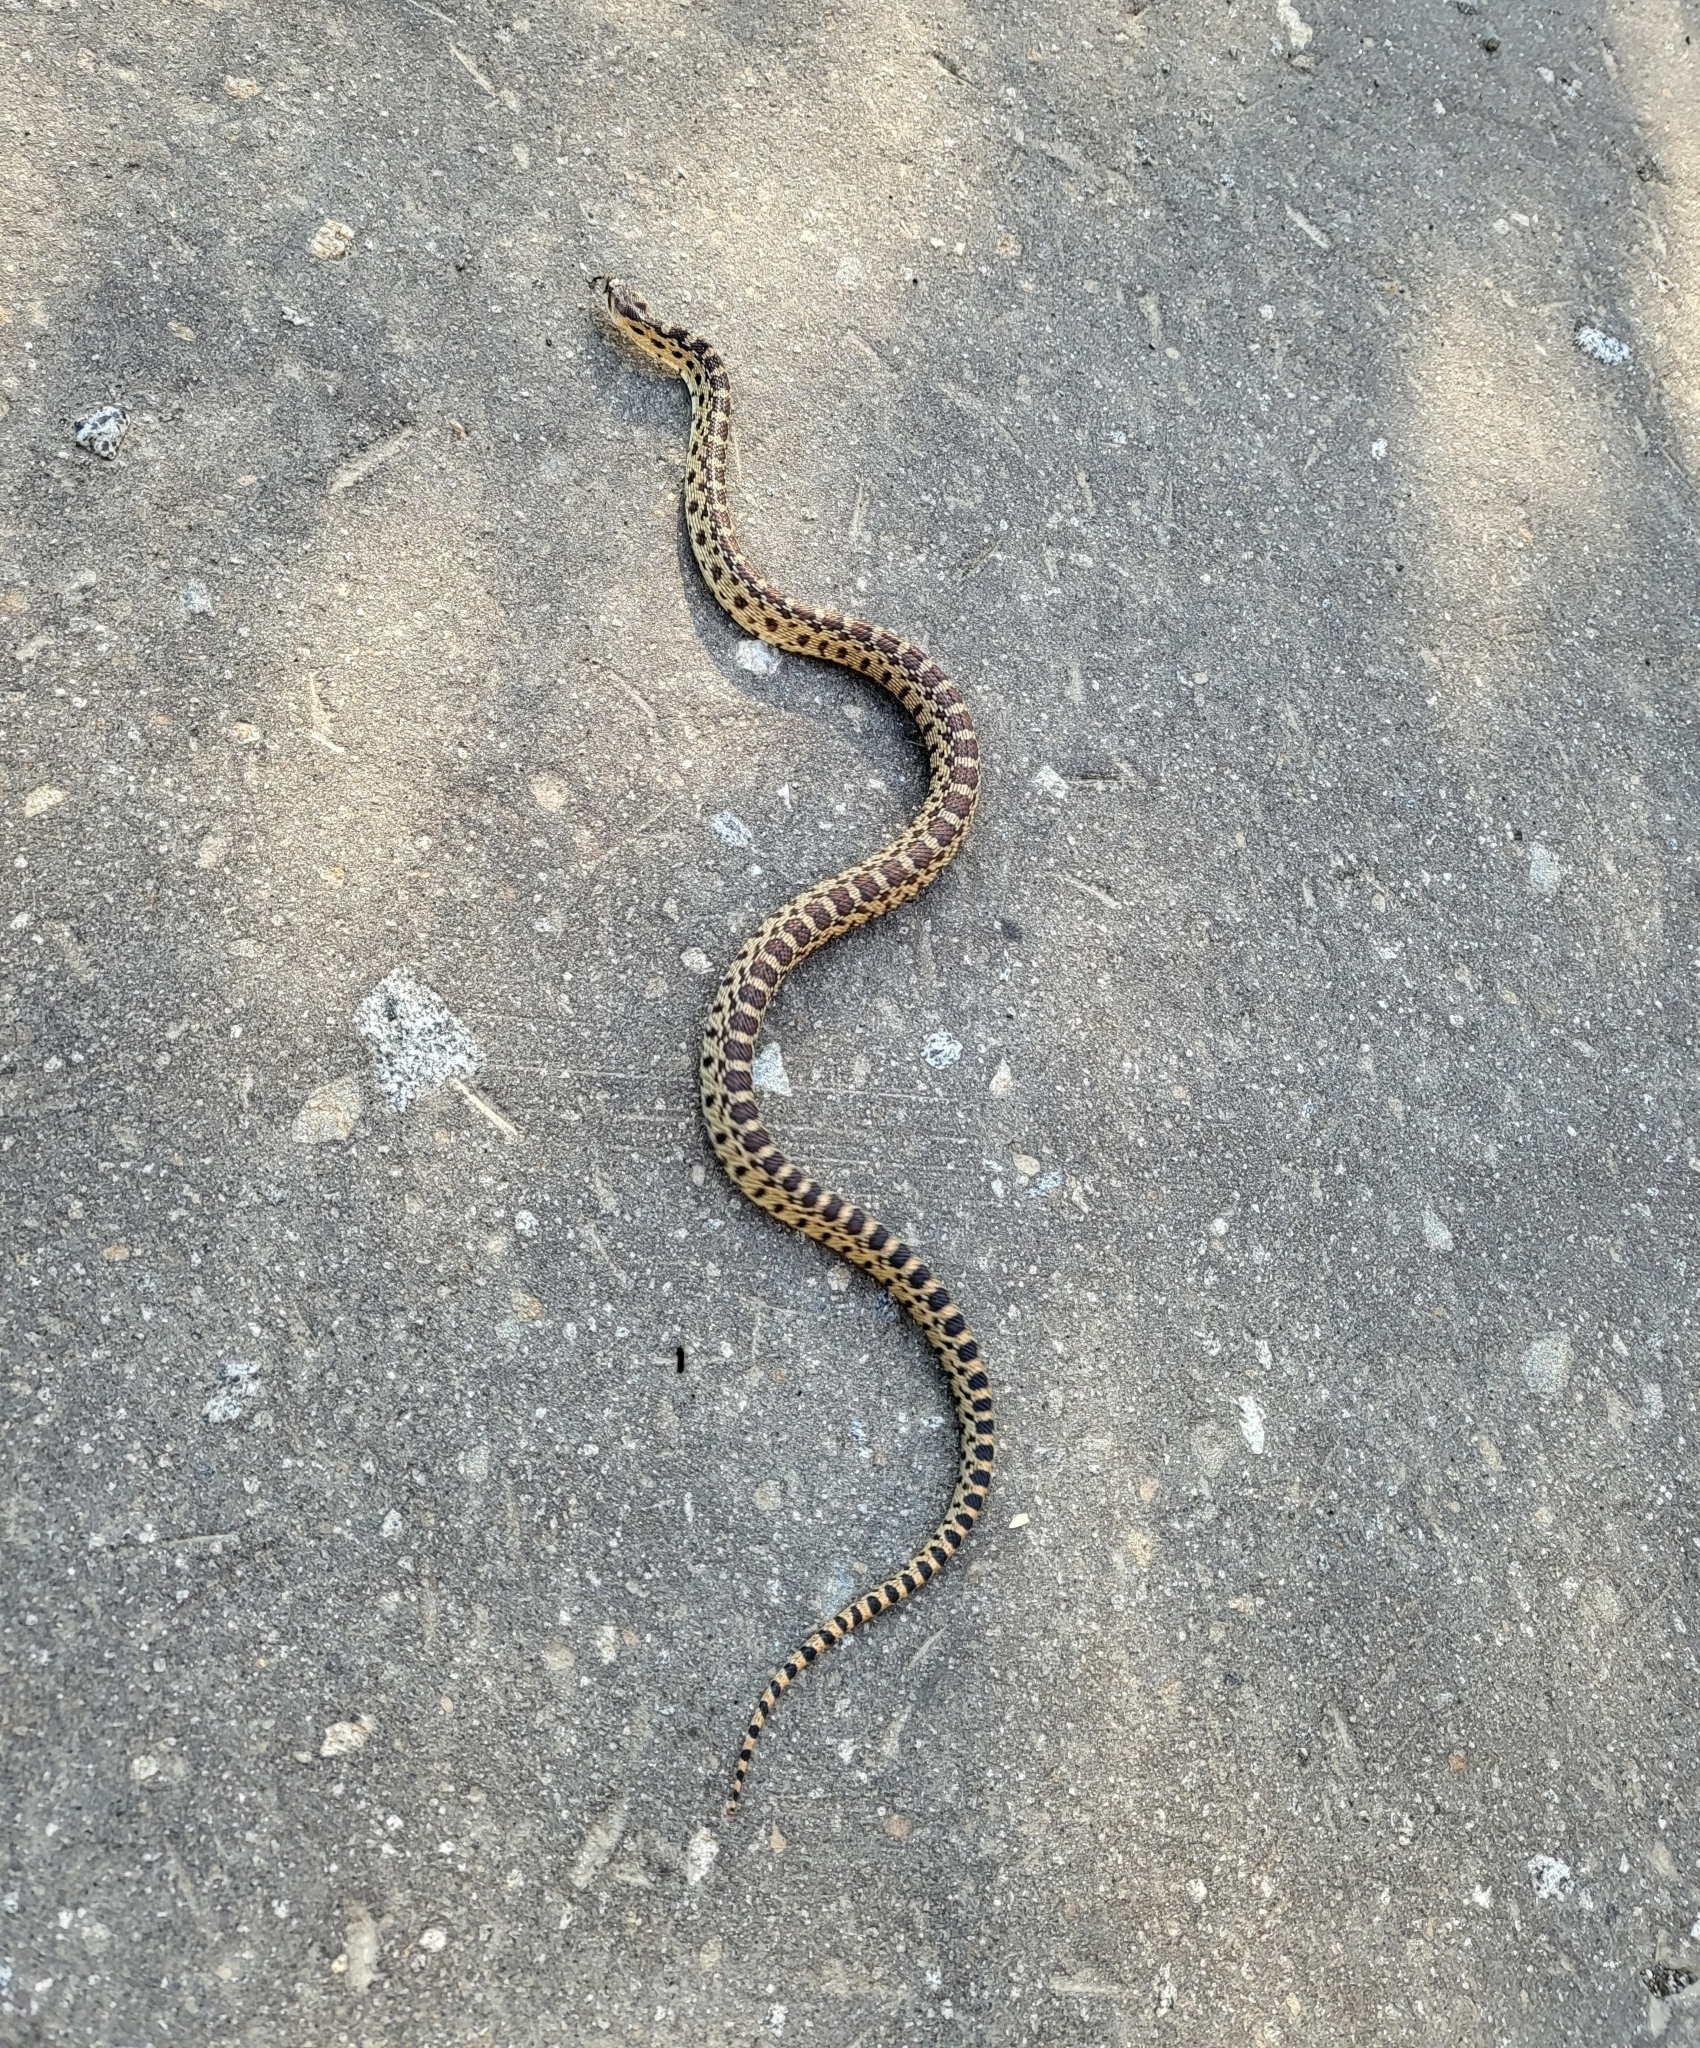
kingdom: Animalia
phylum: Chordata
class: Squamata
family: Colubridae
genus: Pituophis
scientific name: Pituophis catenifer
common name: Gopher snake
